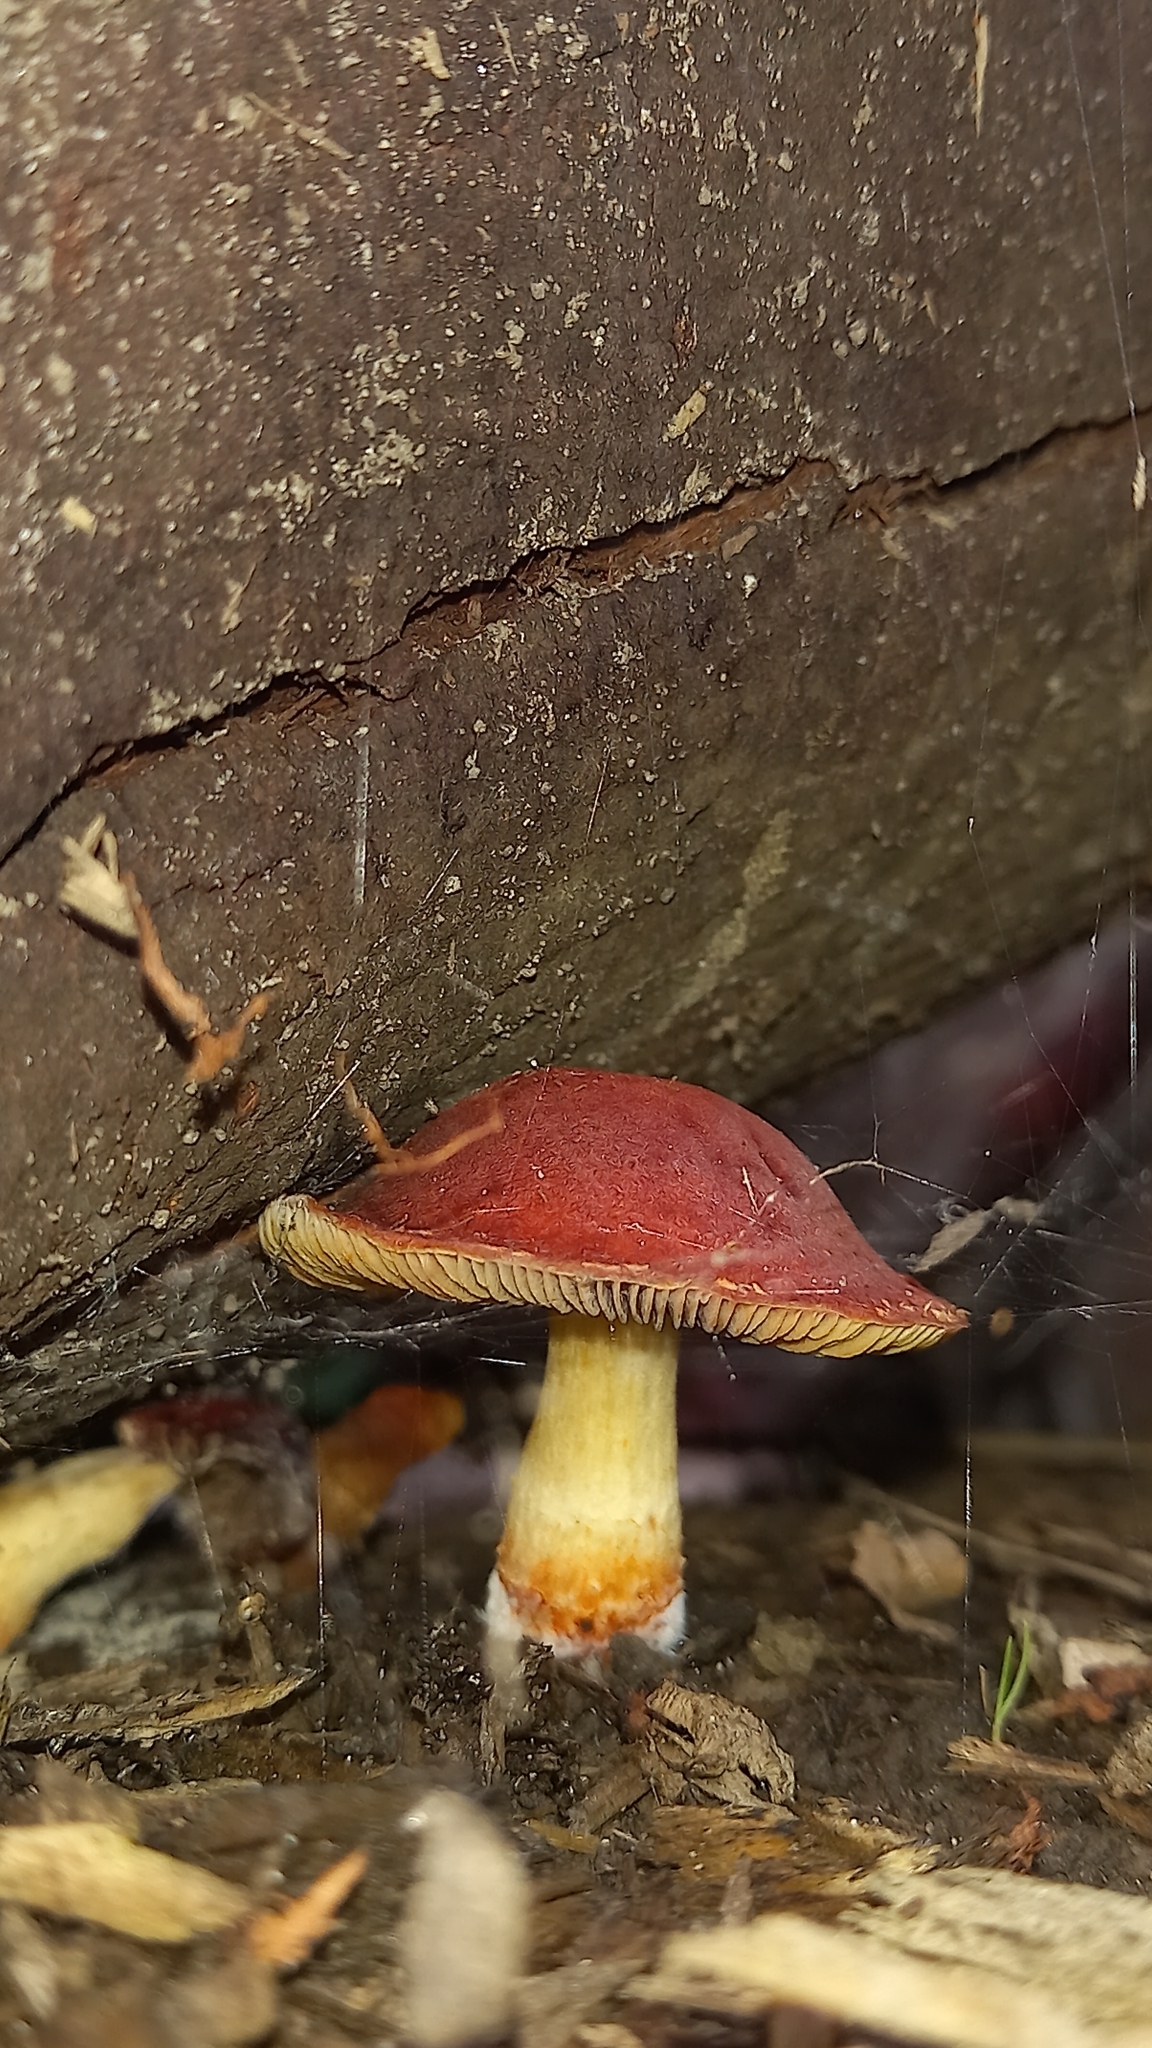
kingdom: Fungi
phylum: Basidiomycota
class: Agaricomycetes
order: Agaricales
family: Strophariaceae
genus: Leratiomyces
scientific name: Leratiomyces ceres
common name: Redlead roundhead
